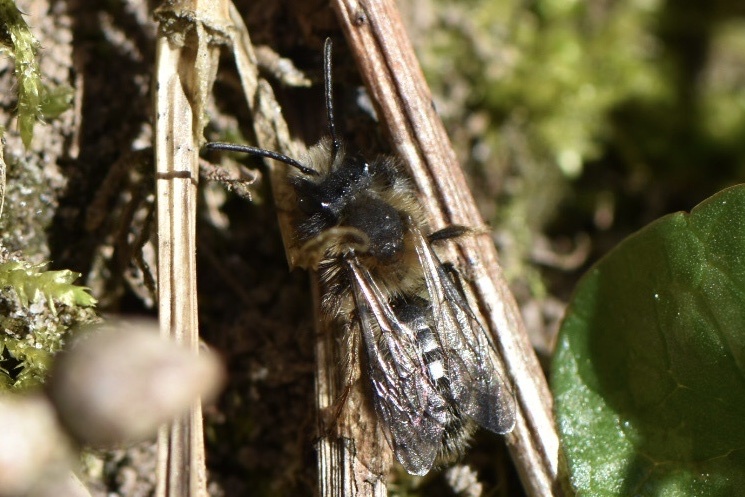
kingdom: Animalia
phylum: Arthropoda
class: Insecta
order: Hymenoptera
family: Andrenidae
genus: Andrena
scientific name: Andrena clarkella
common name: Clarke's mining bee
